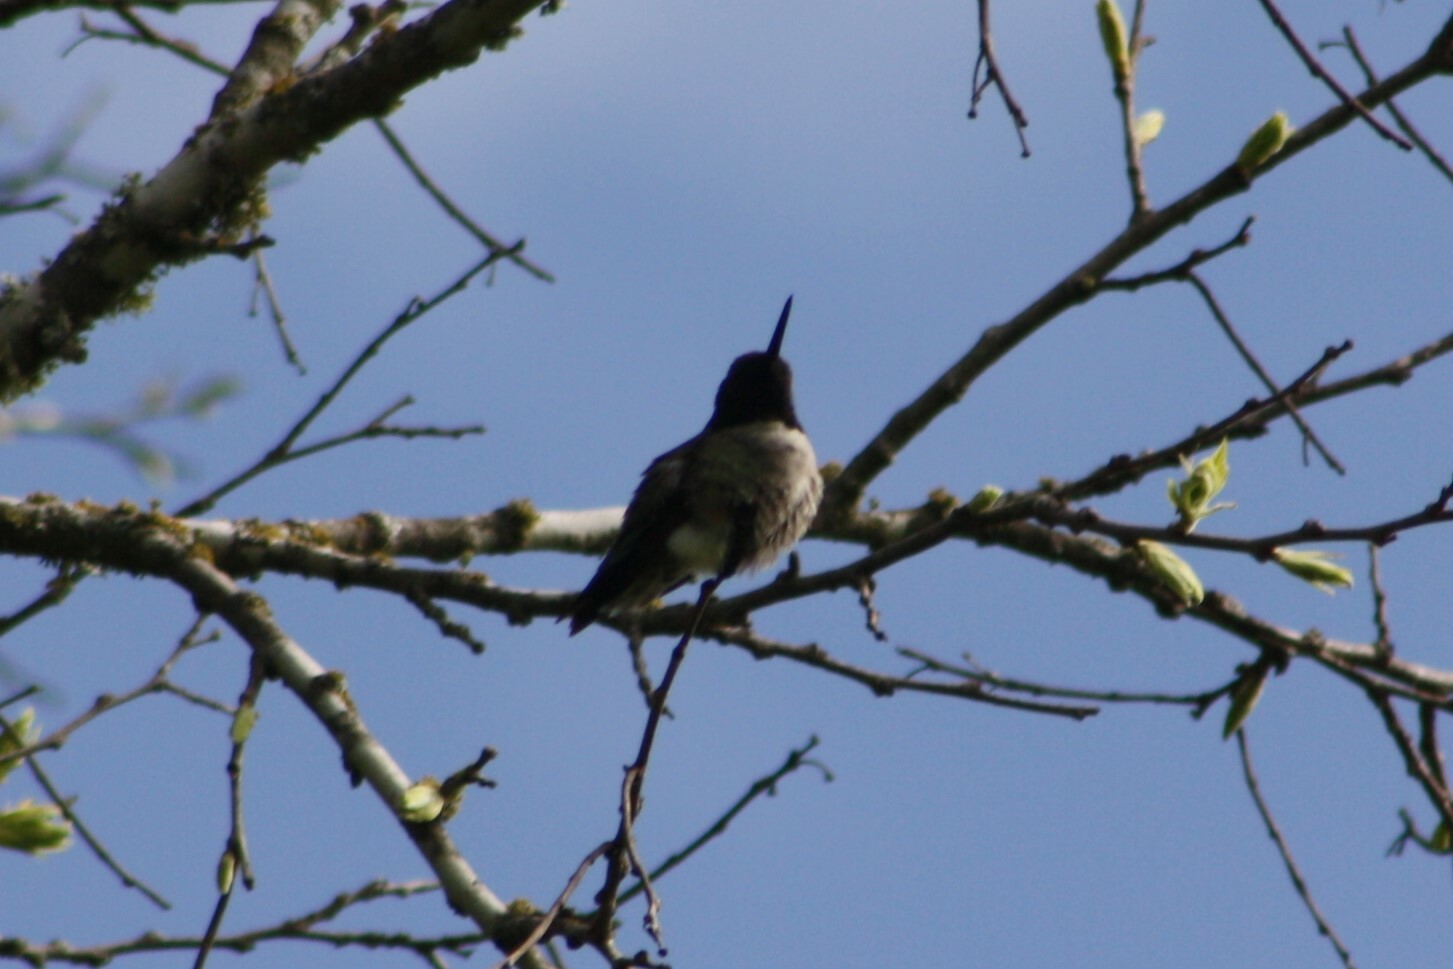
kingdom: Animalia
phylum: Chordata
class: Aves
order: Apodiformes
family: Trochilidae
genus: Archilochus
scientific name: Archilochus alexandri
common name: Black-chinned hummingbird
